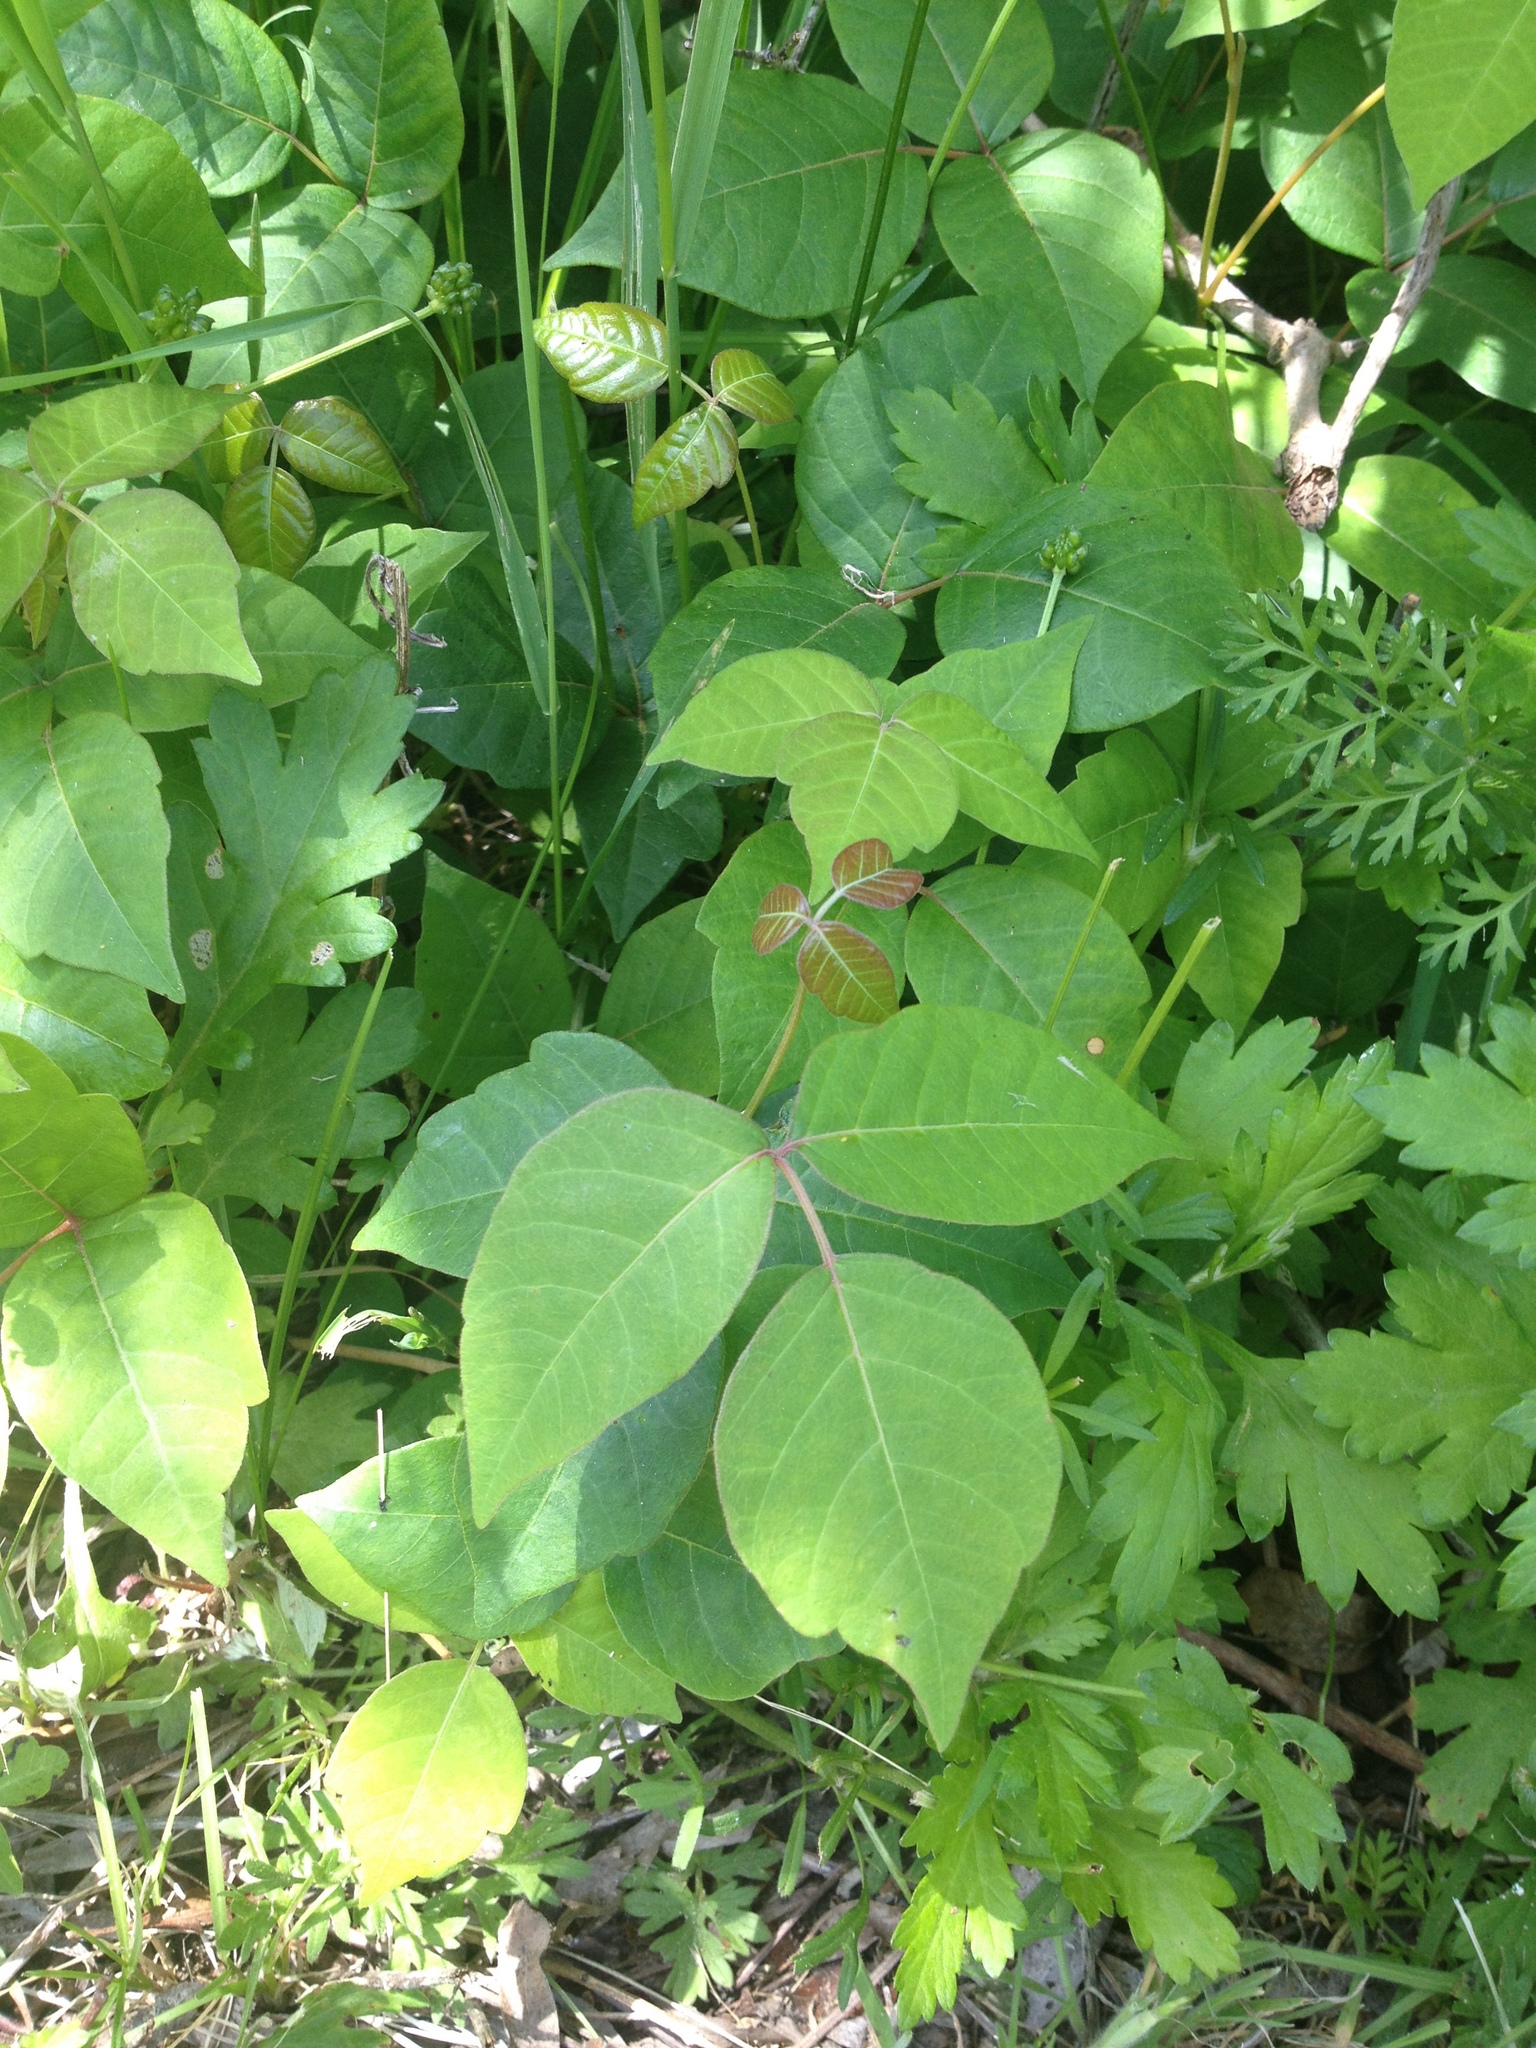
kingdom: Plantae
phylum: Tracheophyta
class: Magnoliopsida
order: Sapindales
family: Anacardiaceae
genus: Toxicodendron
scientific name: Toxicodendron radicans
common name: Poison ivy
